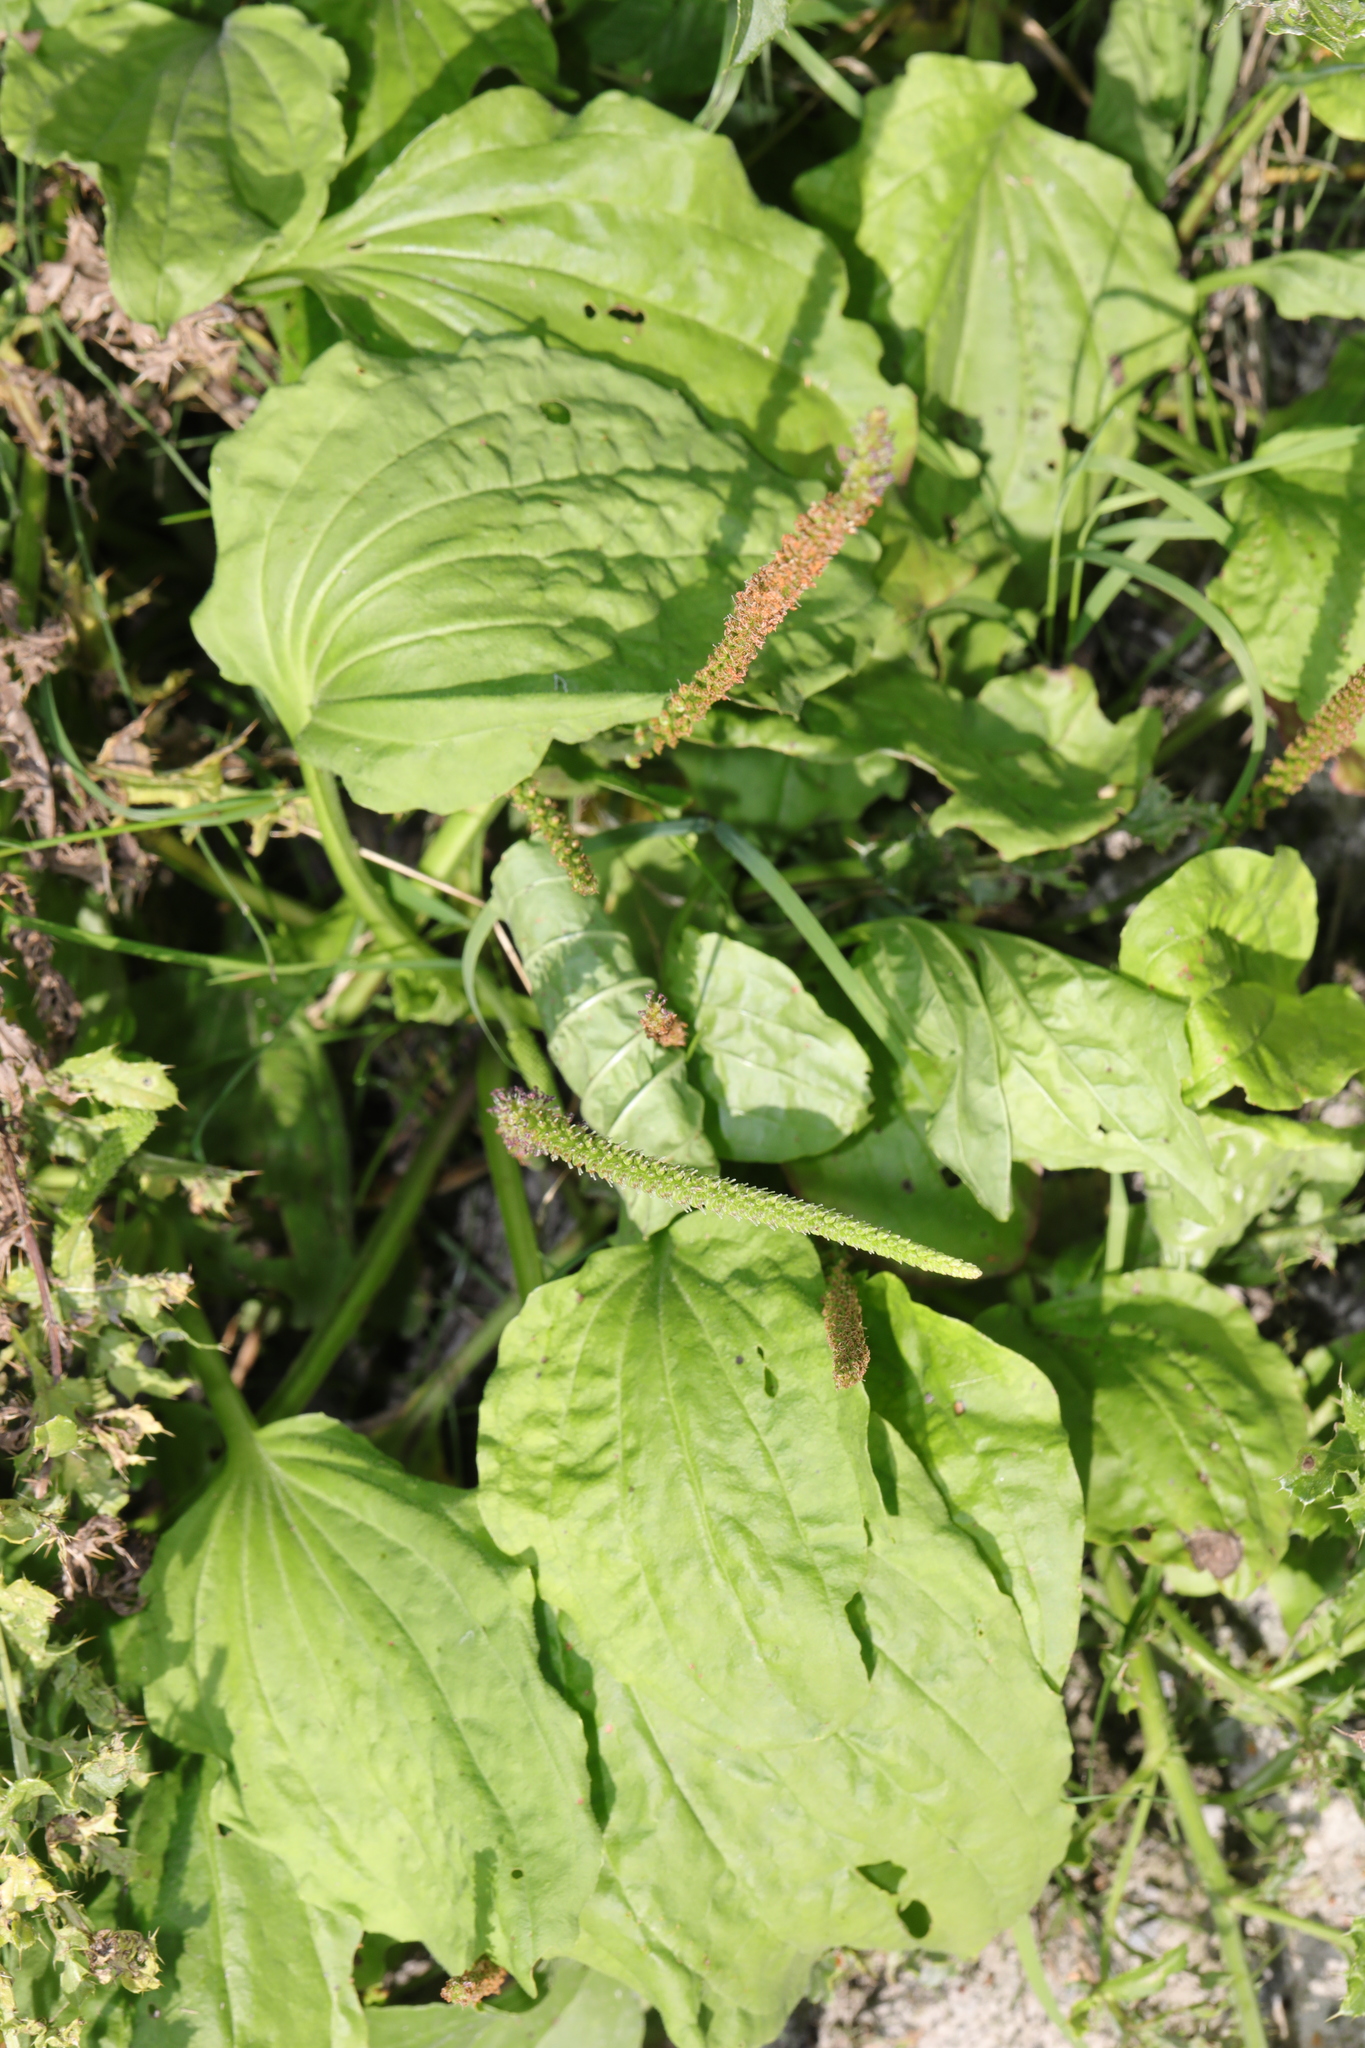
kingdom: Plantae
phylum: Tracheophyta
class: Magnoliopsida
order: Lamiales
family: Plantaginaceae
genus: Plantago
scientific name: Plantago major
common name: Common plantain
